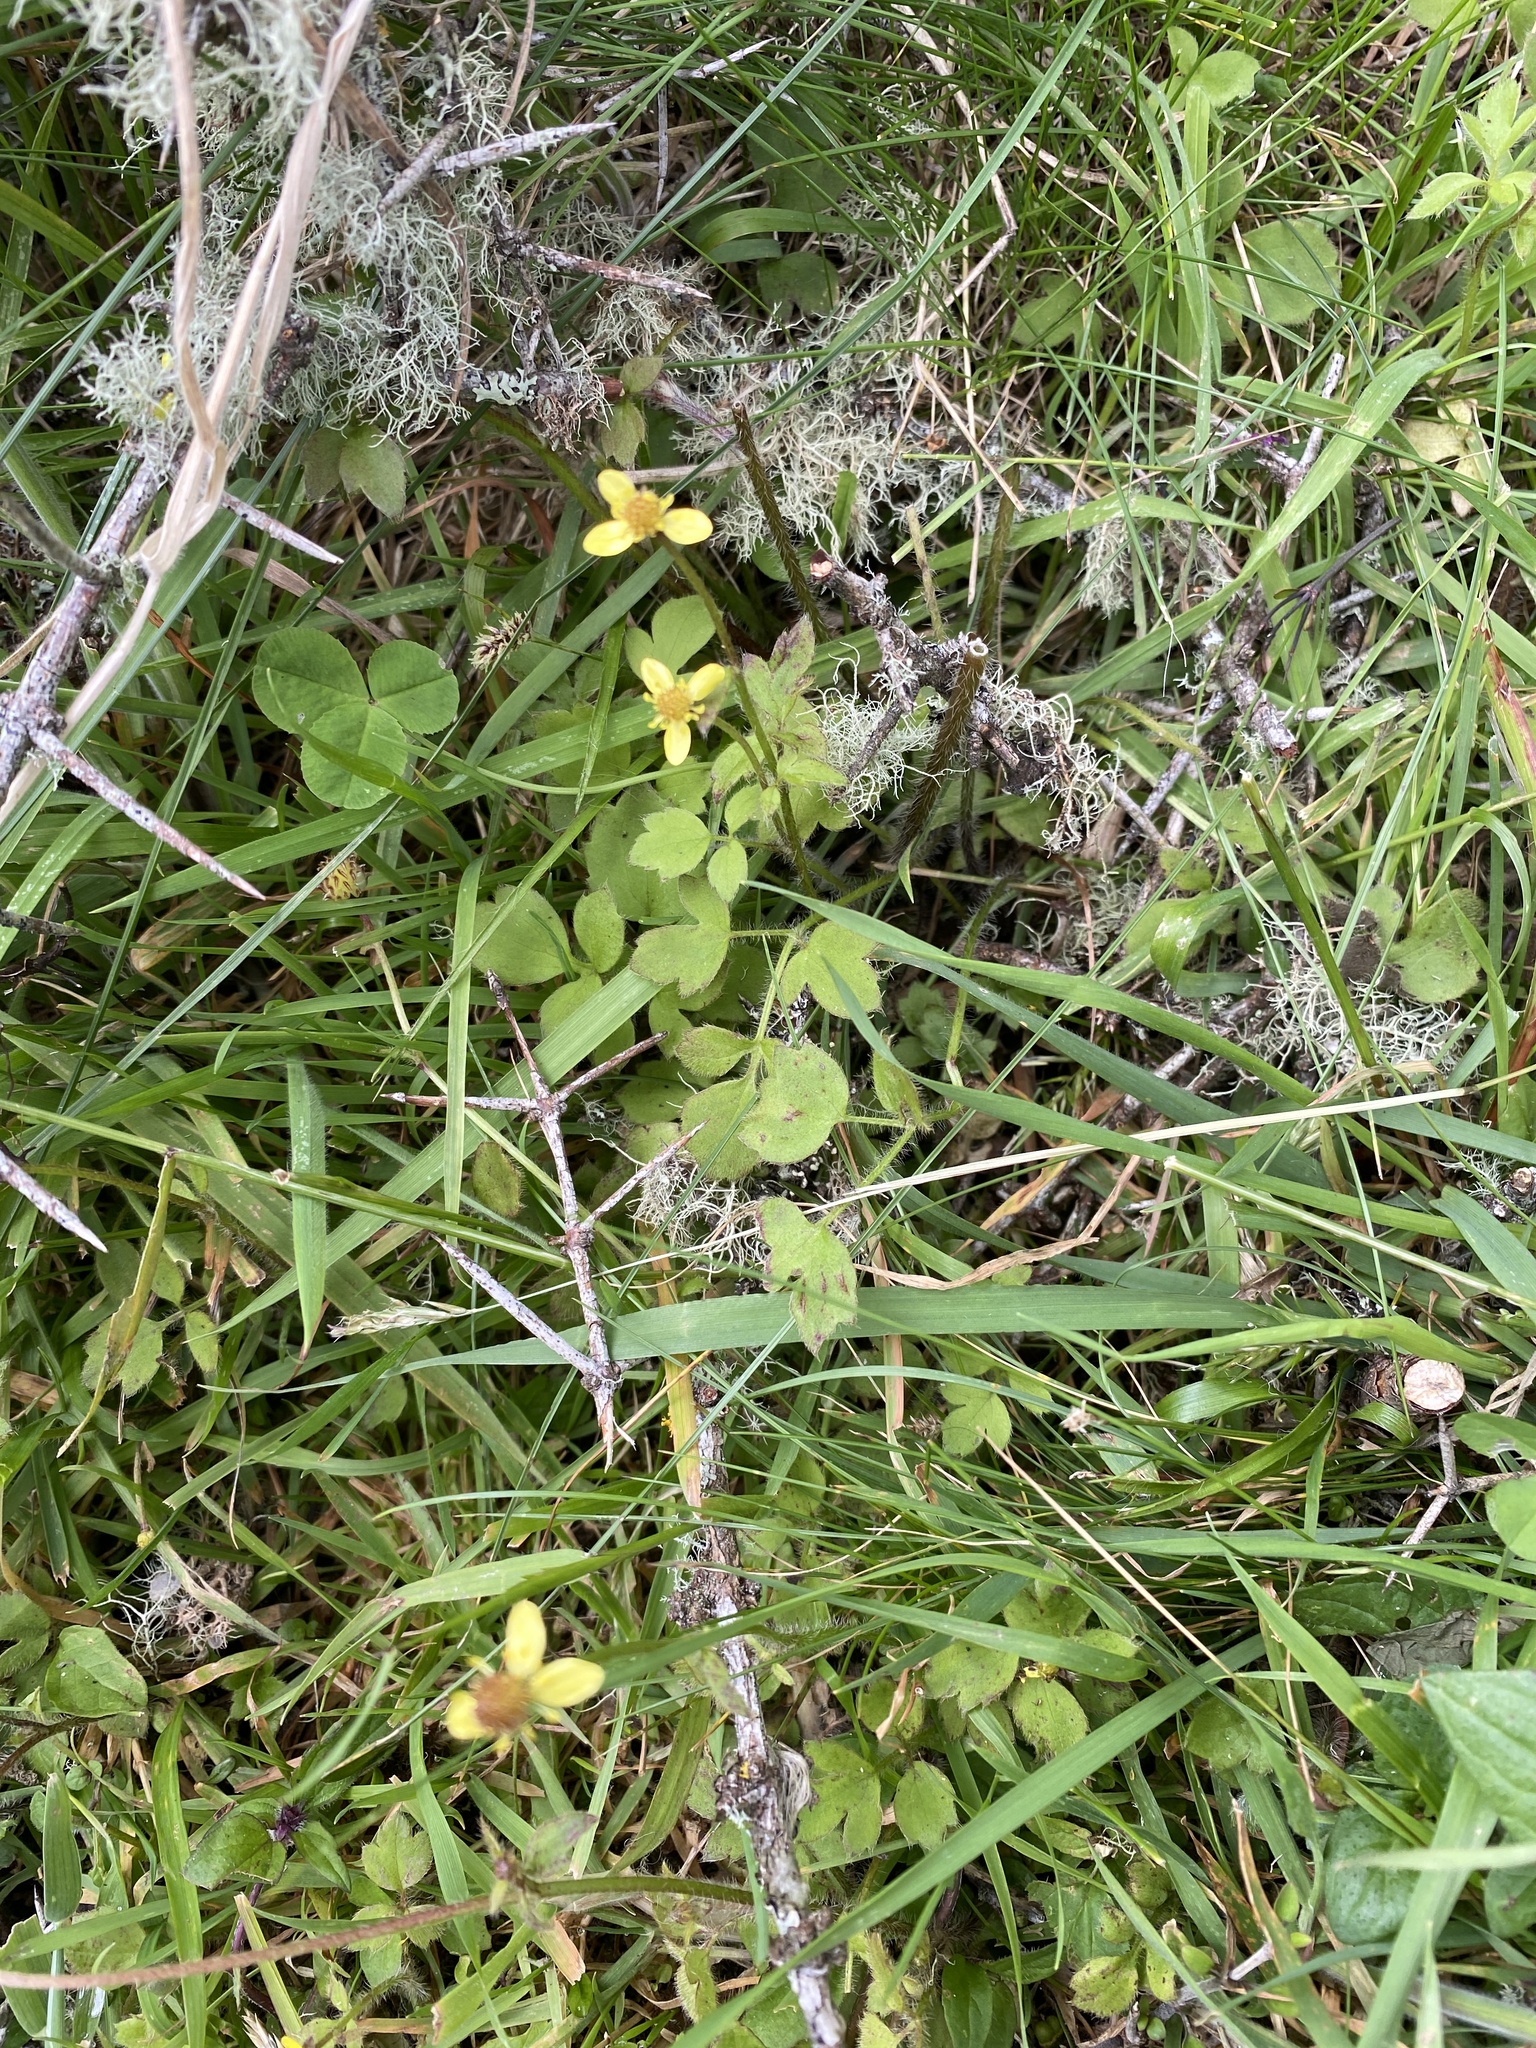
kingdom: Plantae
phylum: Tracheophyta
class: Magnoliopsida
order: Ranunculales
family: Ranunculaceae
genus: Ranunculus
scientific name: Ranunculus reflexus
